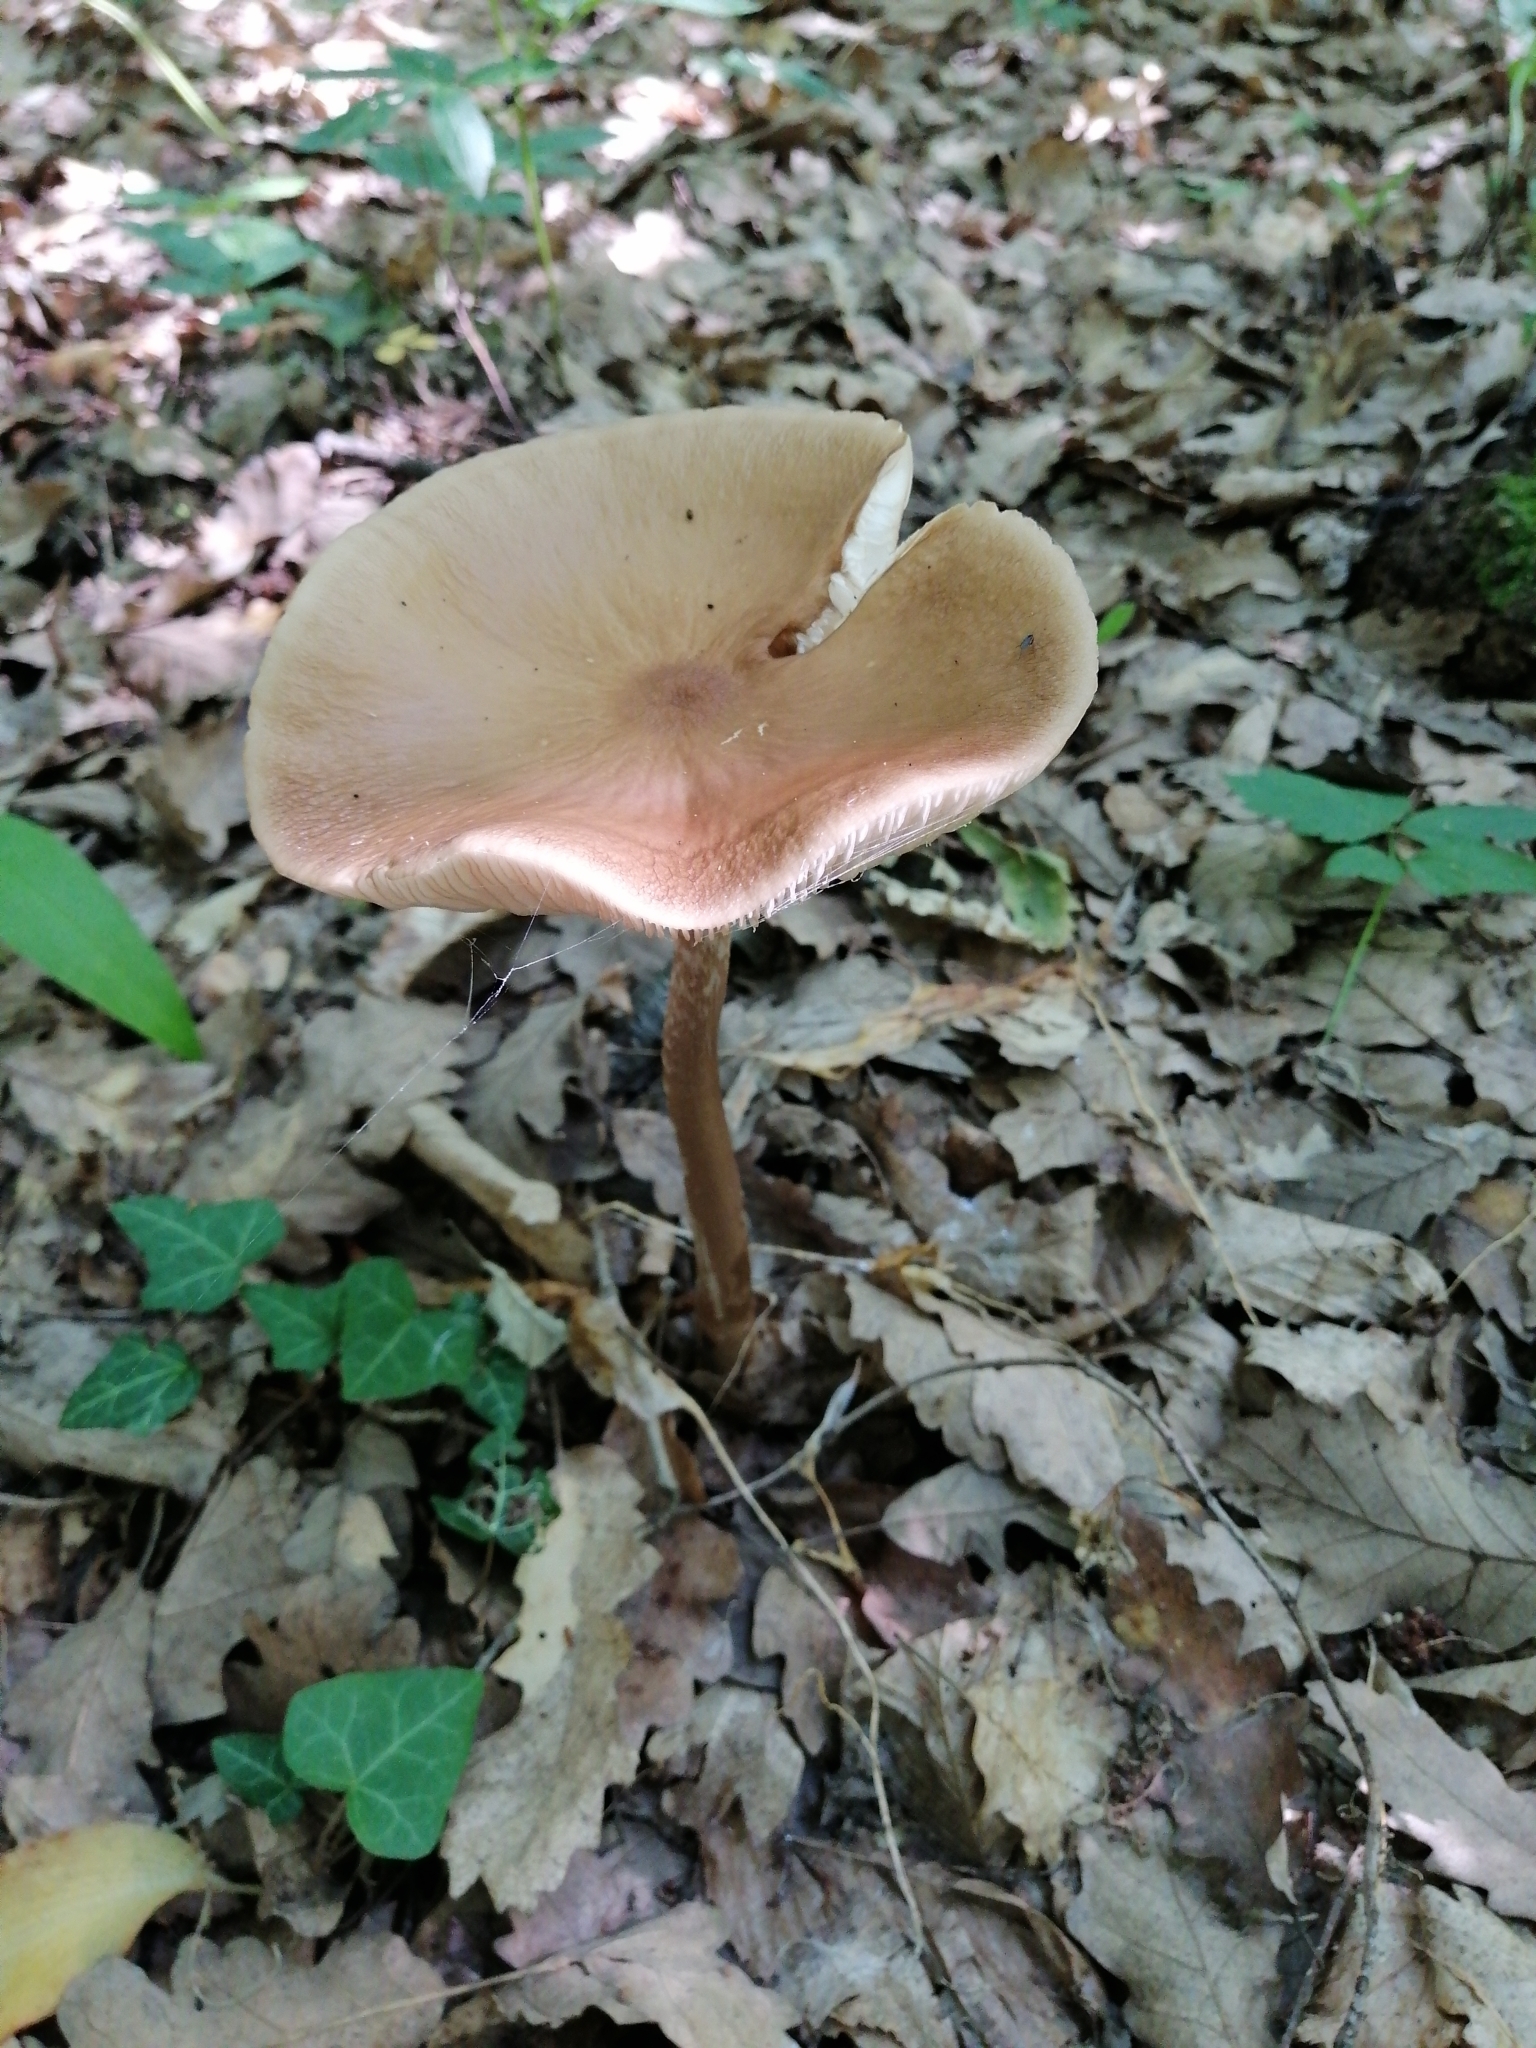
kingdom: Fungi
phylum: Basidiomycota
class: Agaricomycetes
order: Agaricales
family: Physalacriaceae
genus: Hymenopellis
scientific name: Hymenopellis radicata
